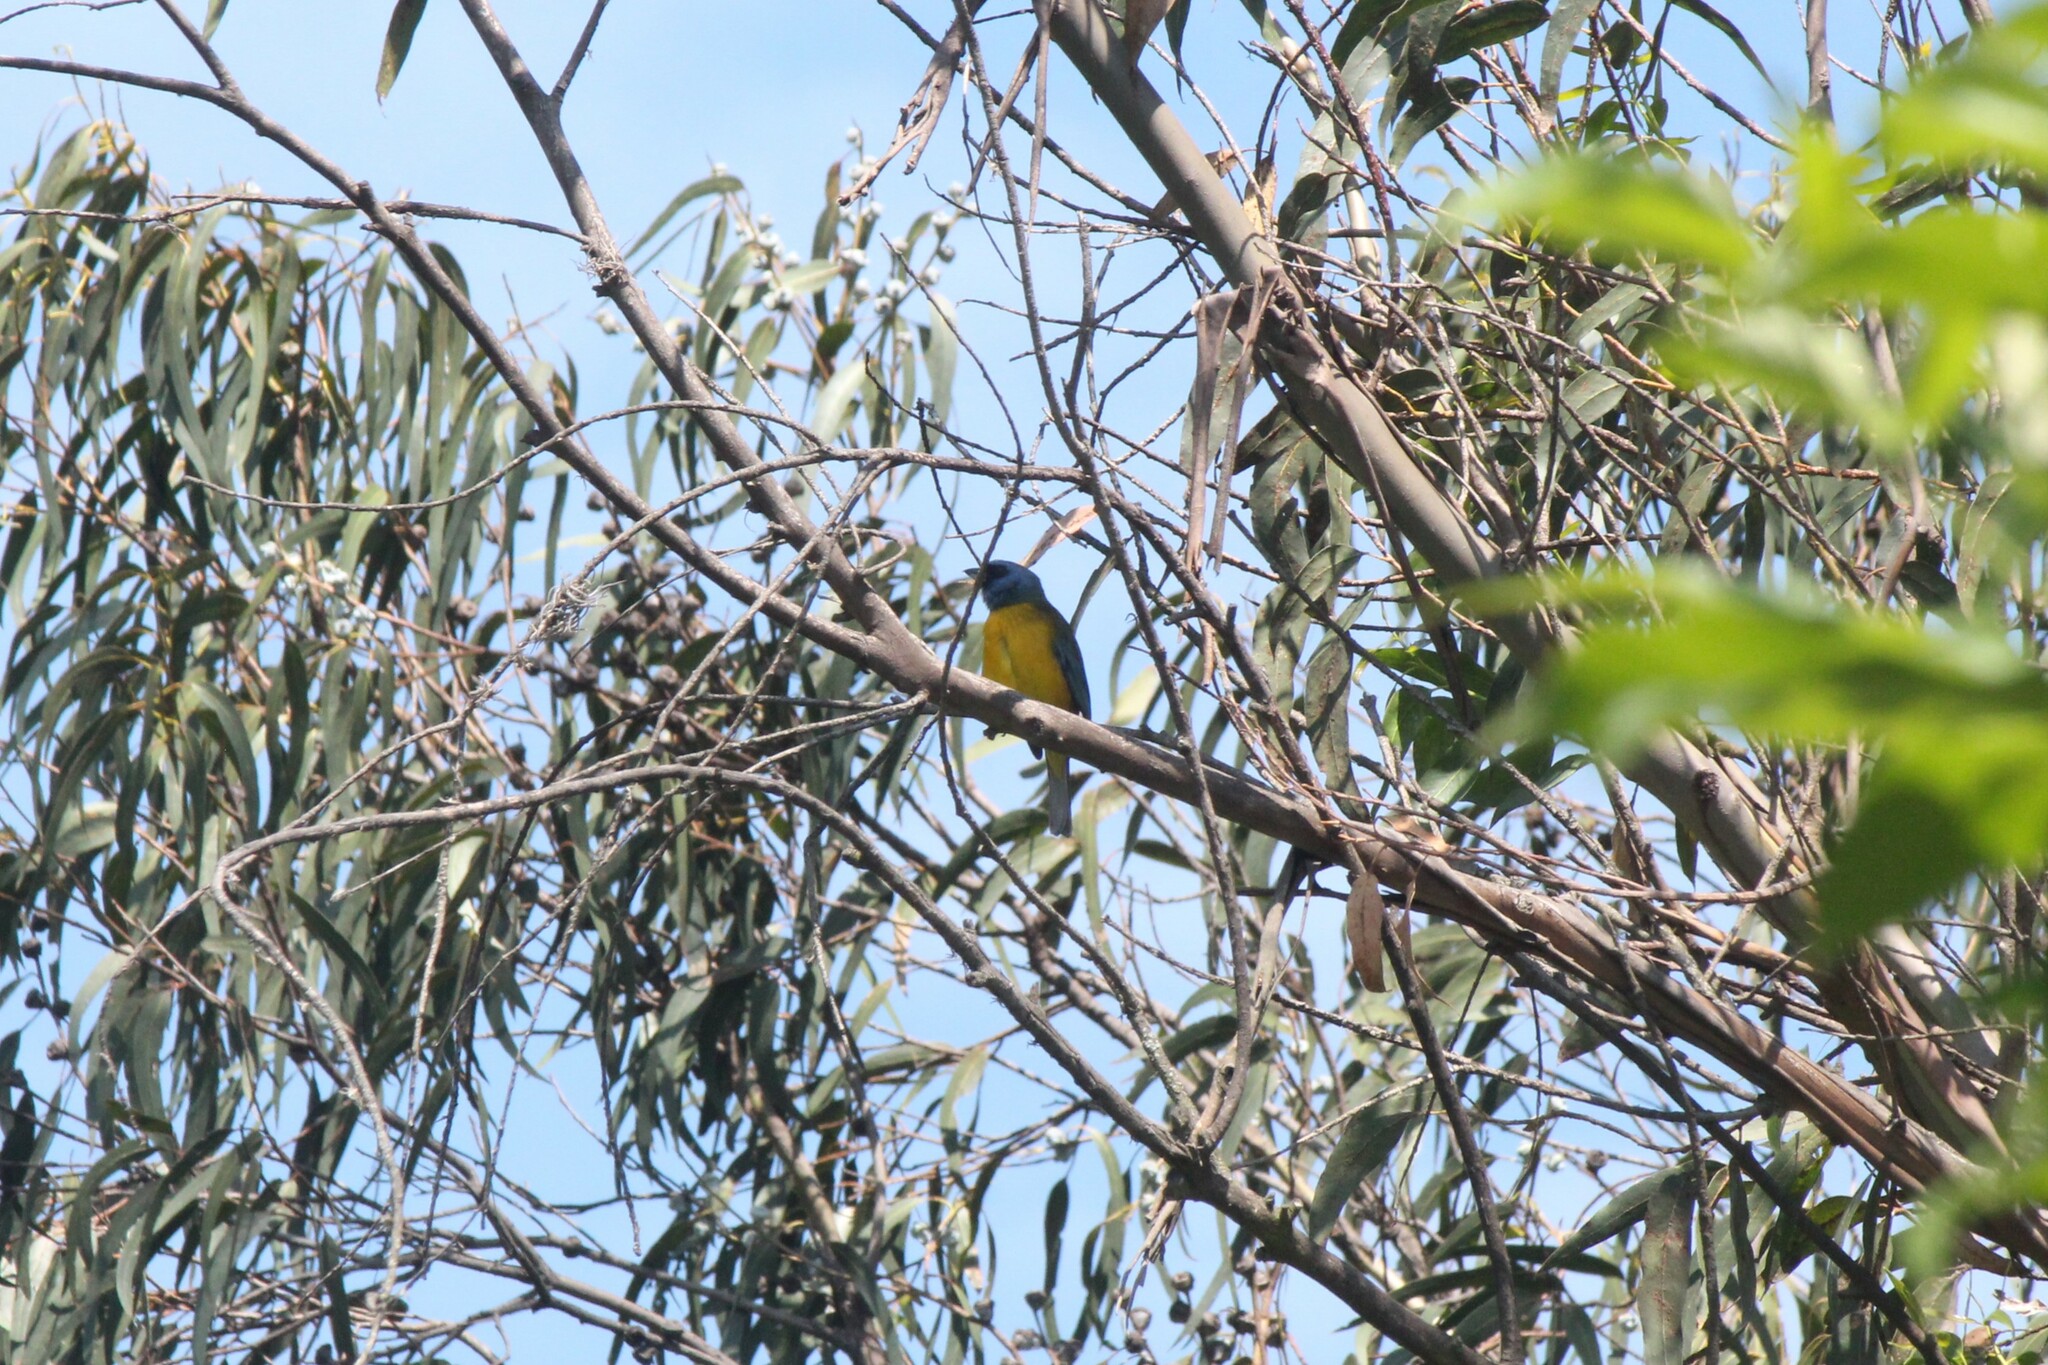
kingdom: Animalia
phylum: Chordata
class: Aves
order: Passeriformes
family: Thraupidae
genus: Rauenia
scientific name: Rauenia bonariensis
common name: Blue-and-yellow tanager
